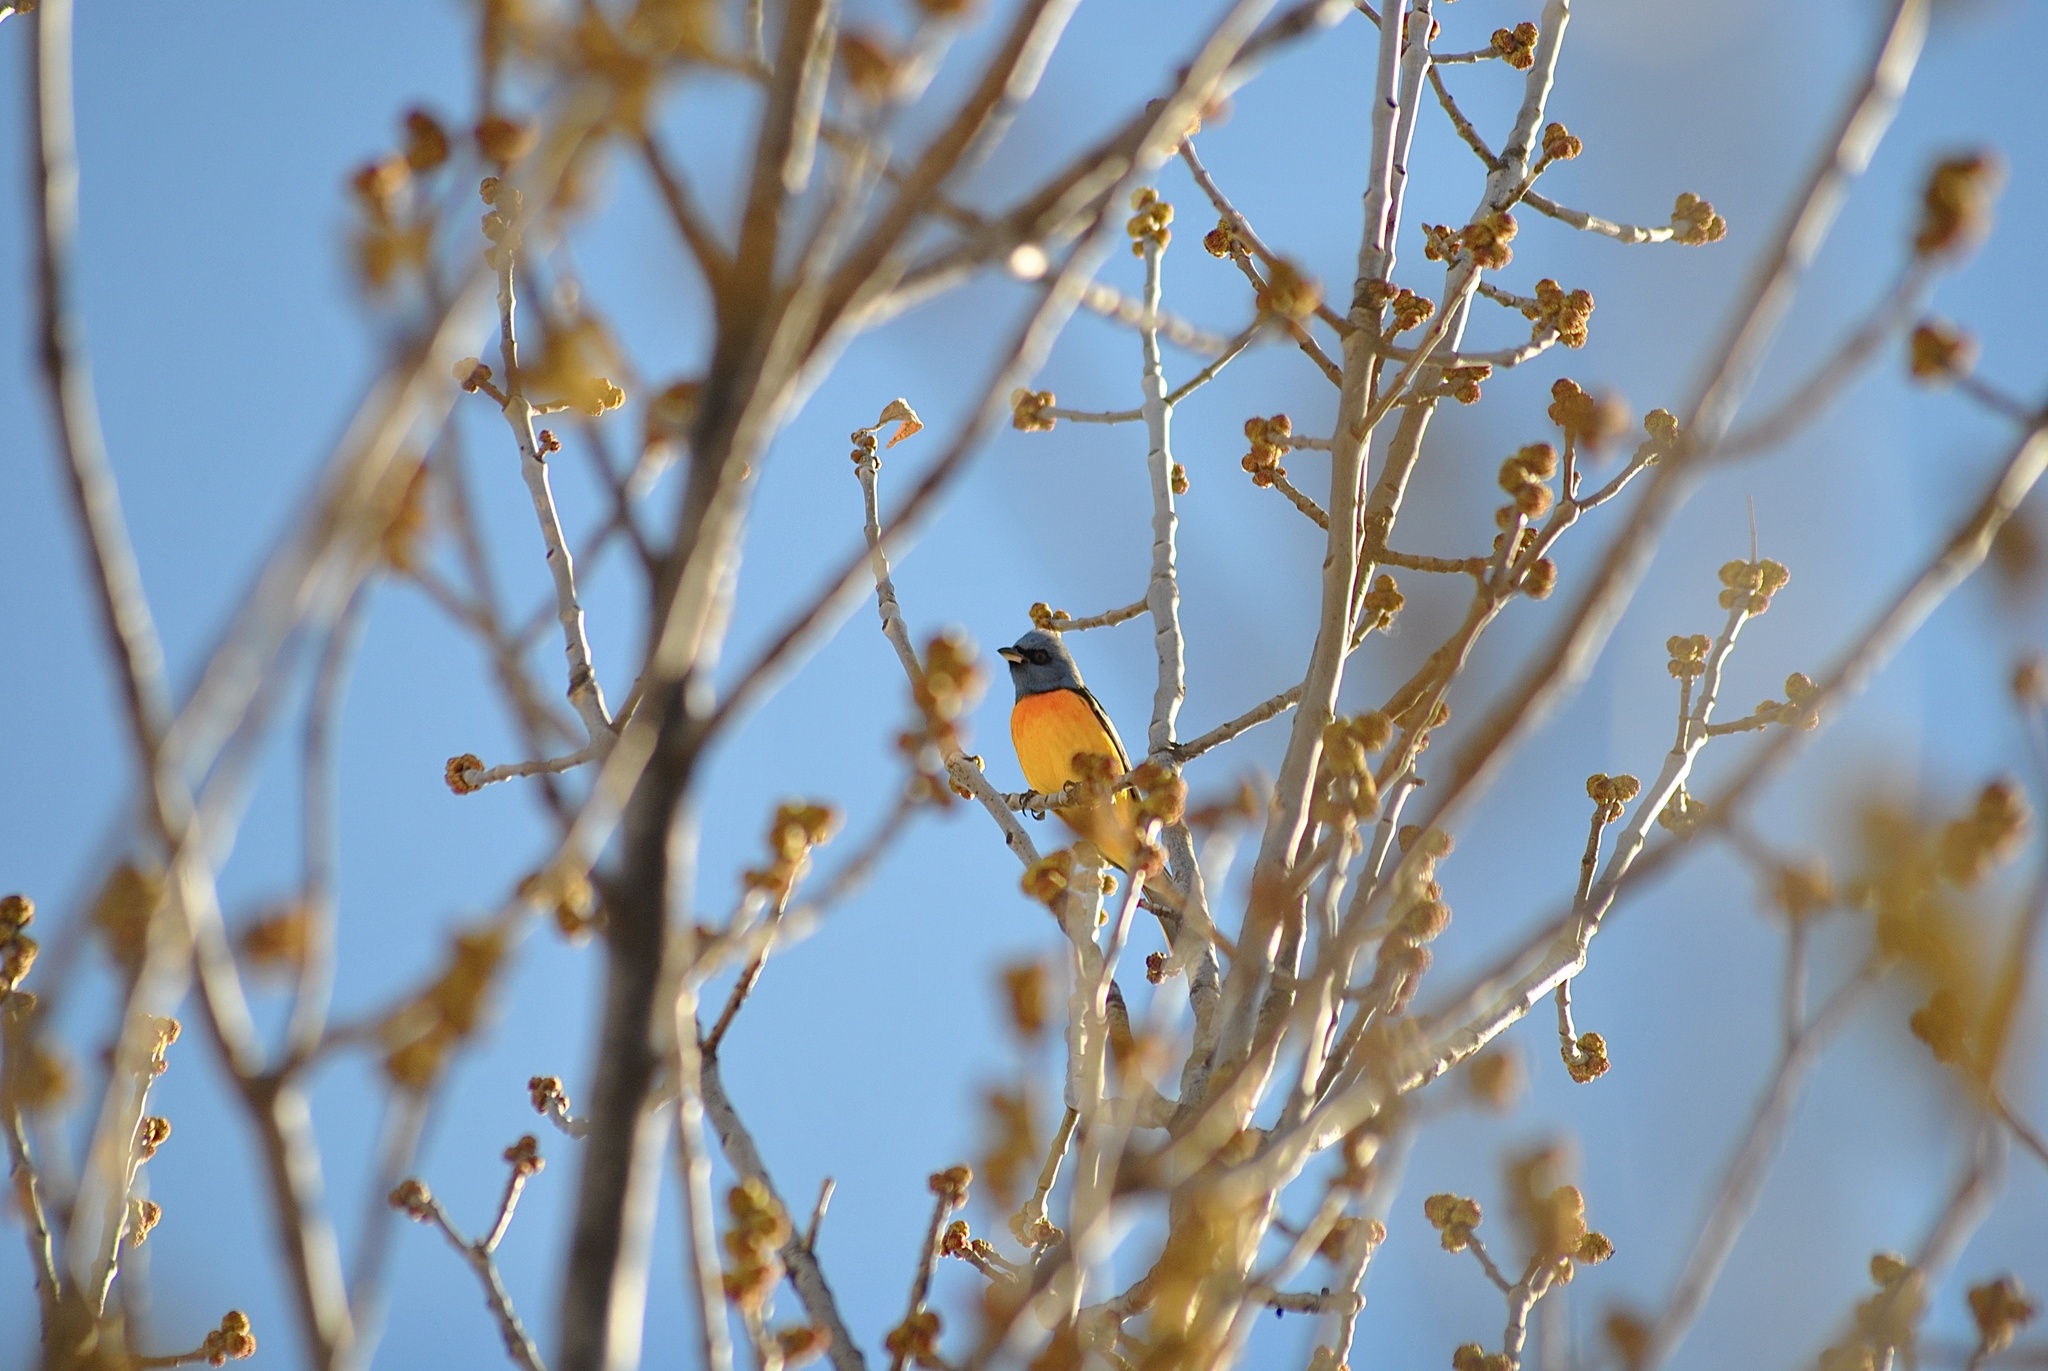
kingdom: Animalia
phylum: Chordata
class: Aves
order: Passeriformes
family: Thraupidae
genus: Rauenia
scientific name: Rauenia bonariensis
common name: Blue-and-yellow tanager
